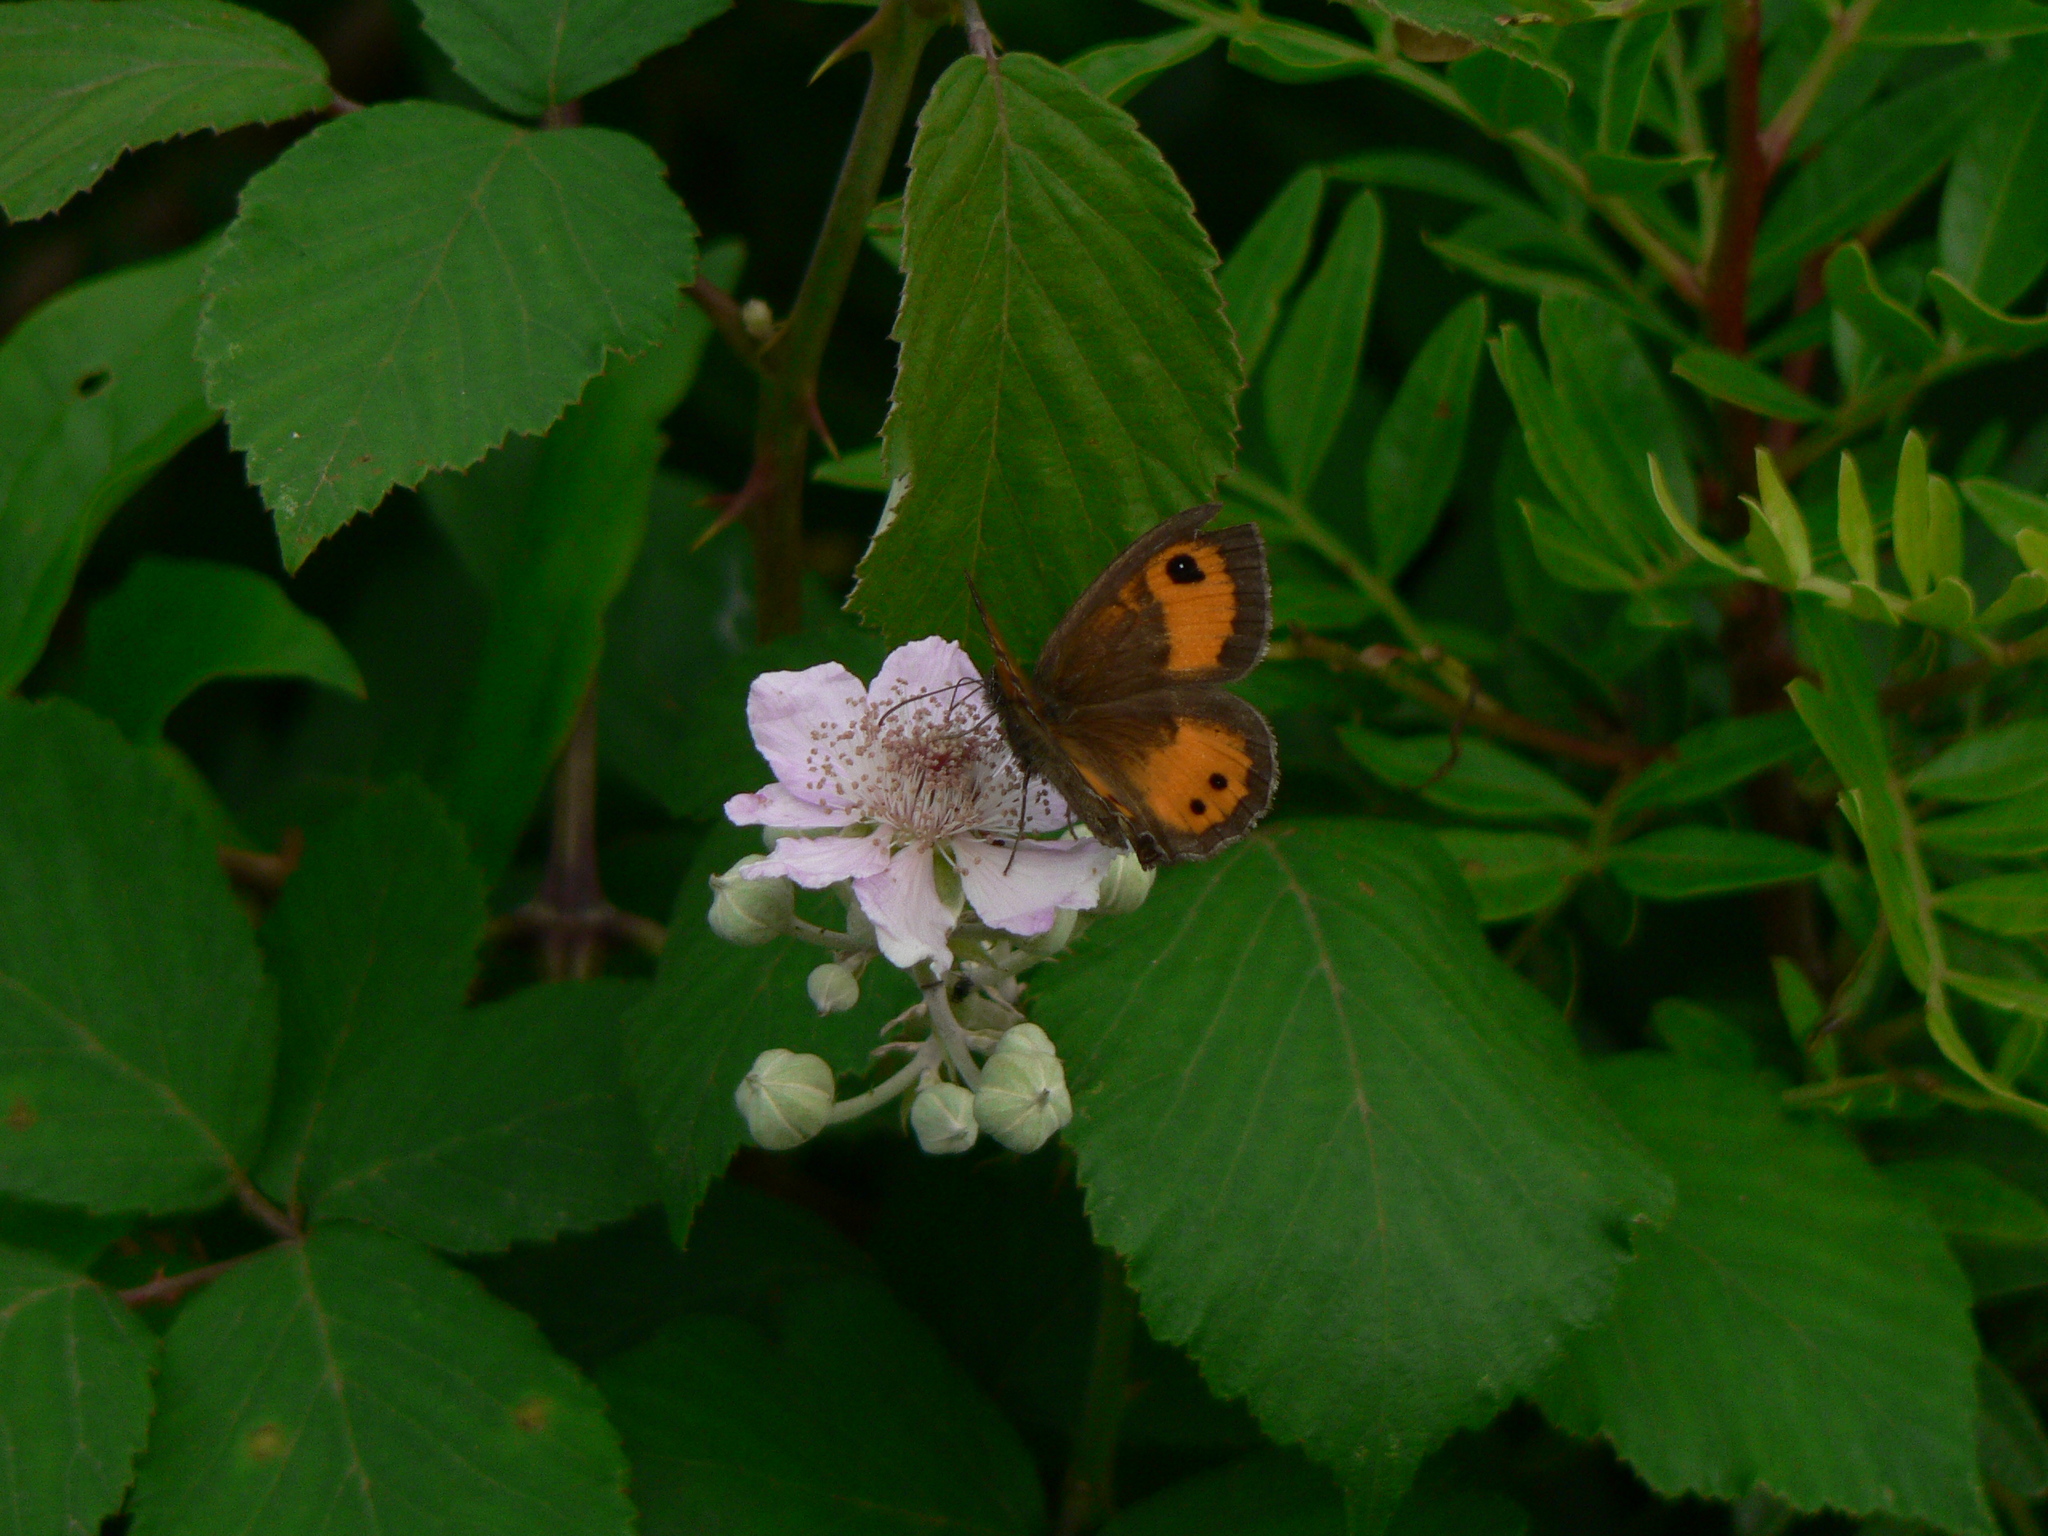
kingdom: Animalia
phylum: Arthropoda
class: Insecta
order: Lepidoptera
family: Nymphalidae
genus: Pyronia
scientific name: Pyronia bathseba
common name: Spanish gatekeeper
